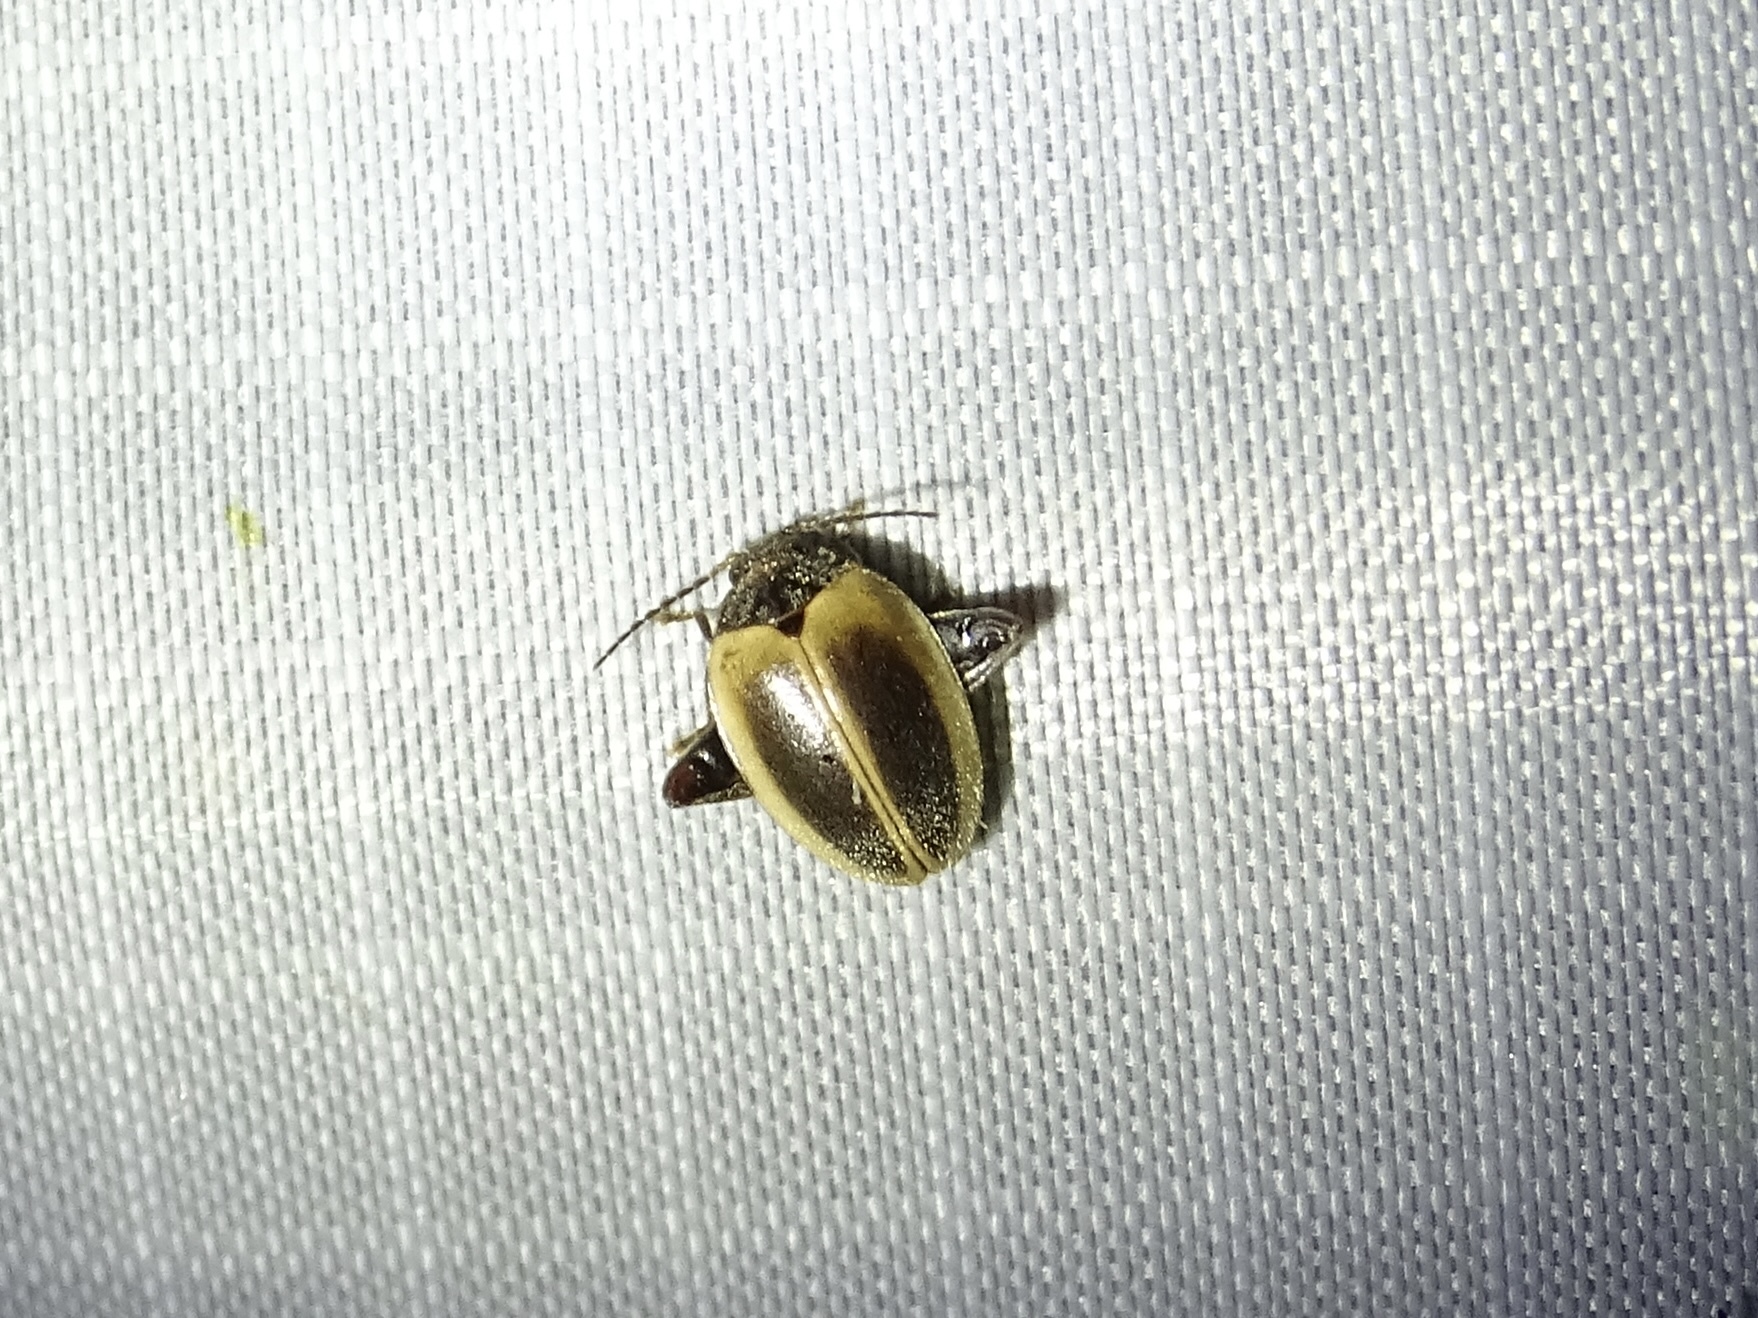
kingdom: Animalia
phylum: Arthropoda
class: Insecta
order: Coleoptera
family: Scirtidae
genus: Ora
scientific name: Ora discoidea
